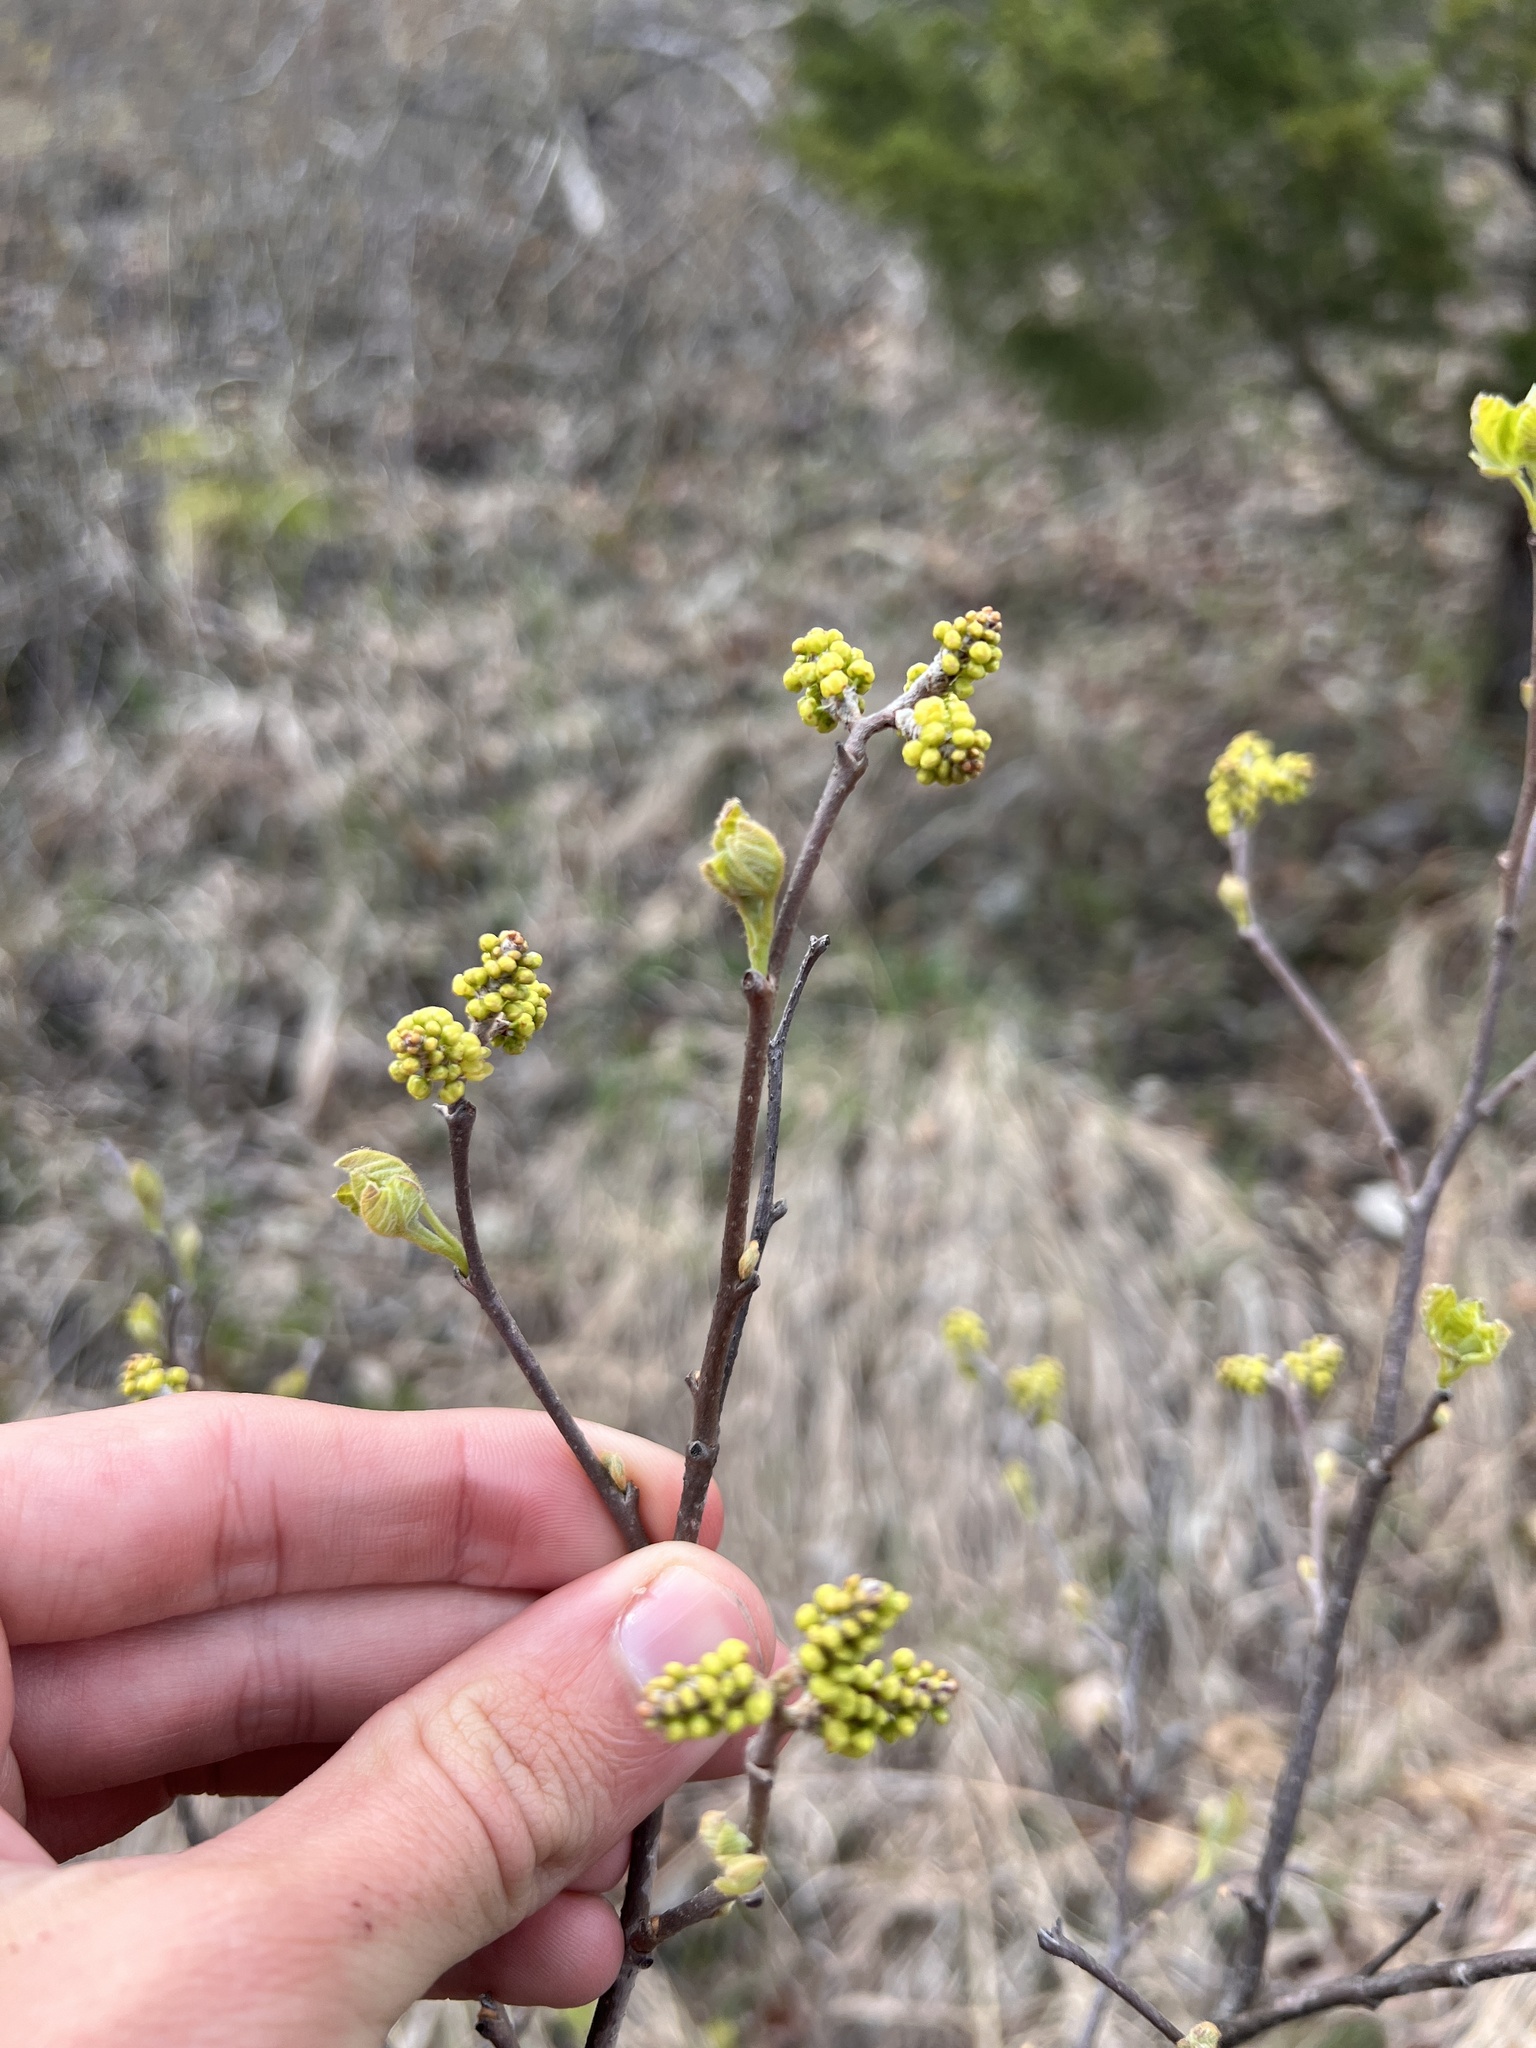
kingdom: Plantae
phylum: Tracheophyta
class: Magnoliopsida
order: Sapindales
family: Anacardiaceae
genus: Rhus
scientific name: Rhus aromatica
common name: Aromatic sumac
